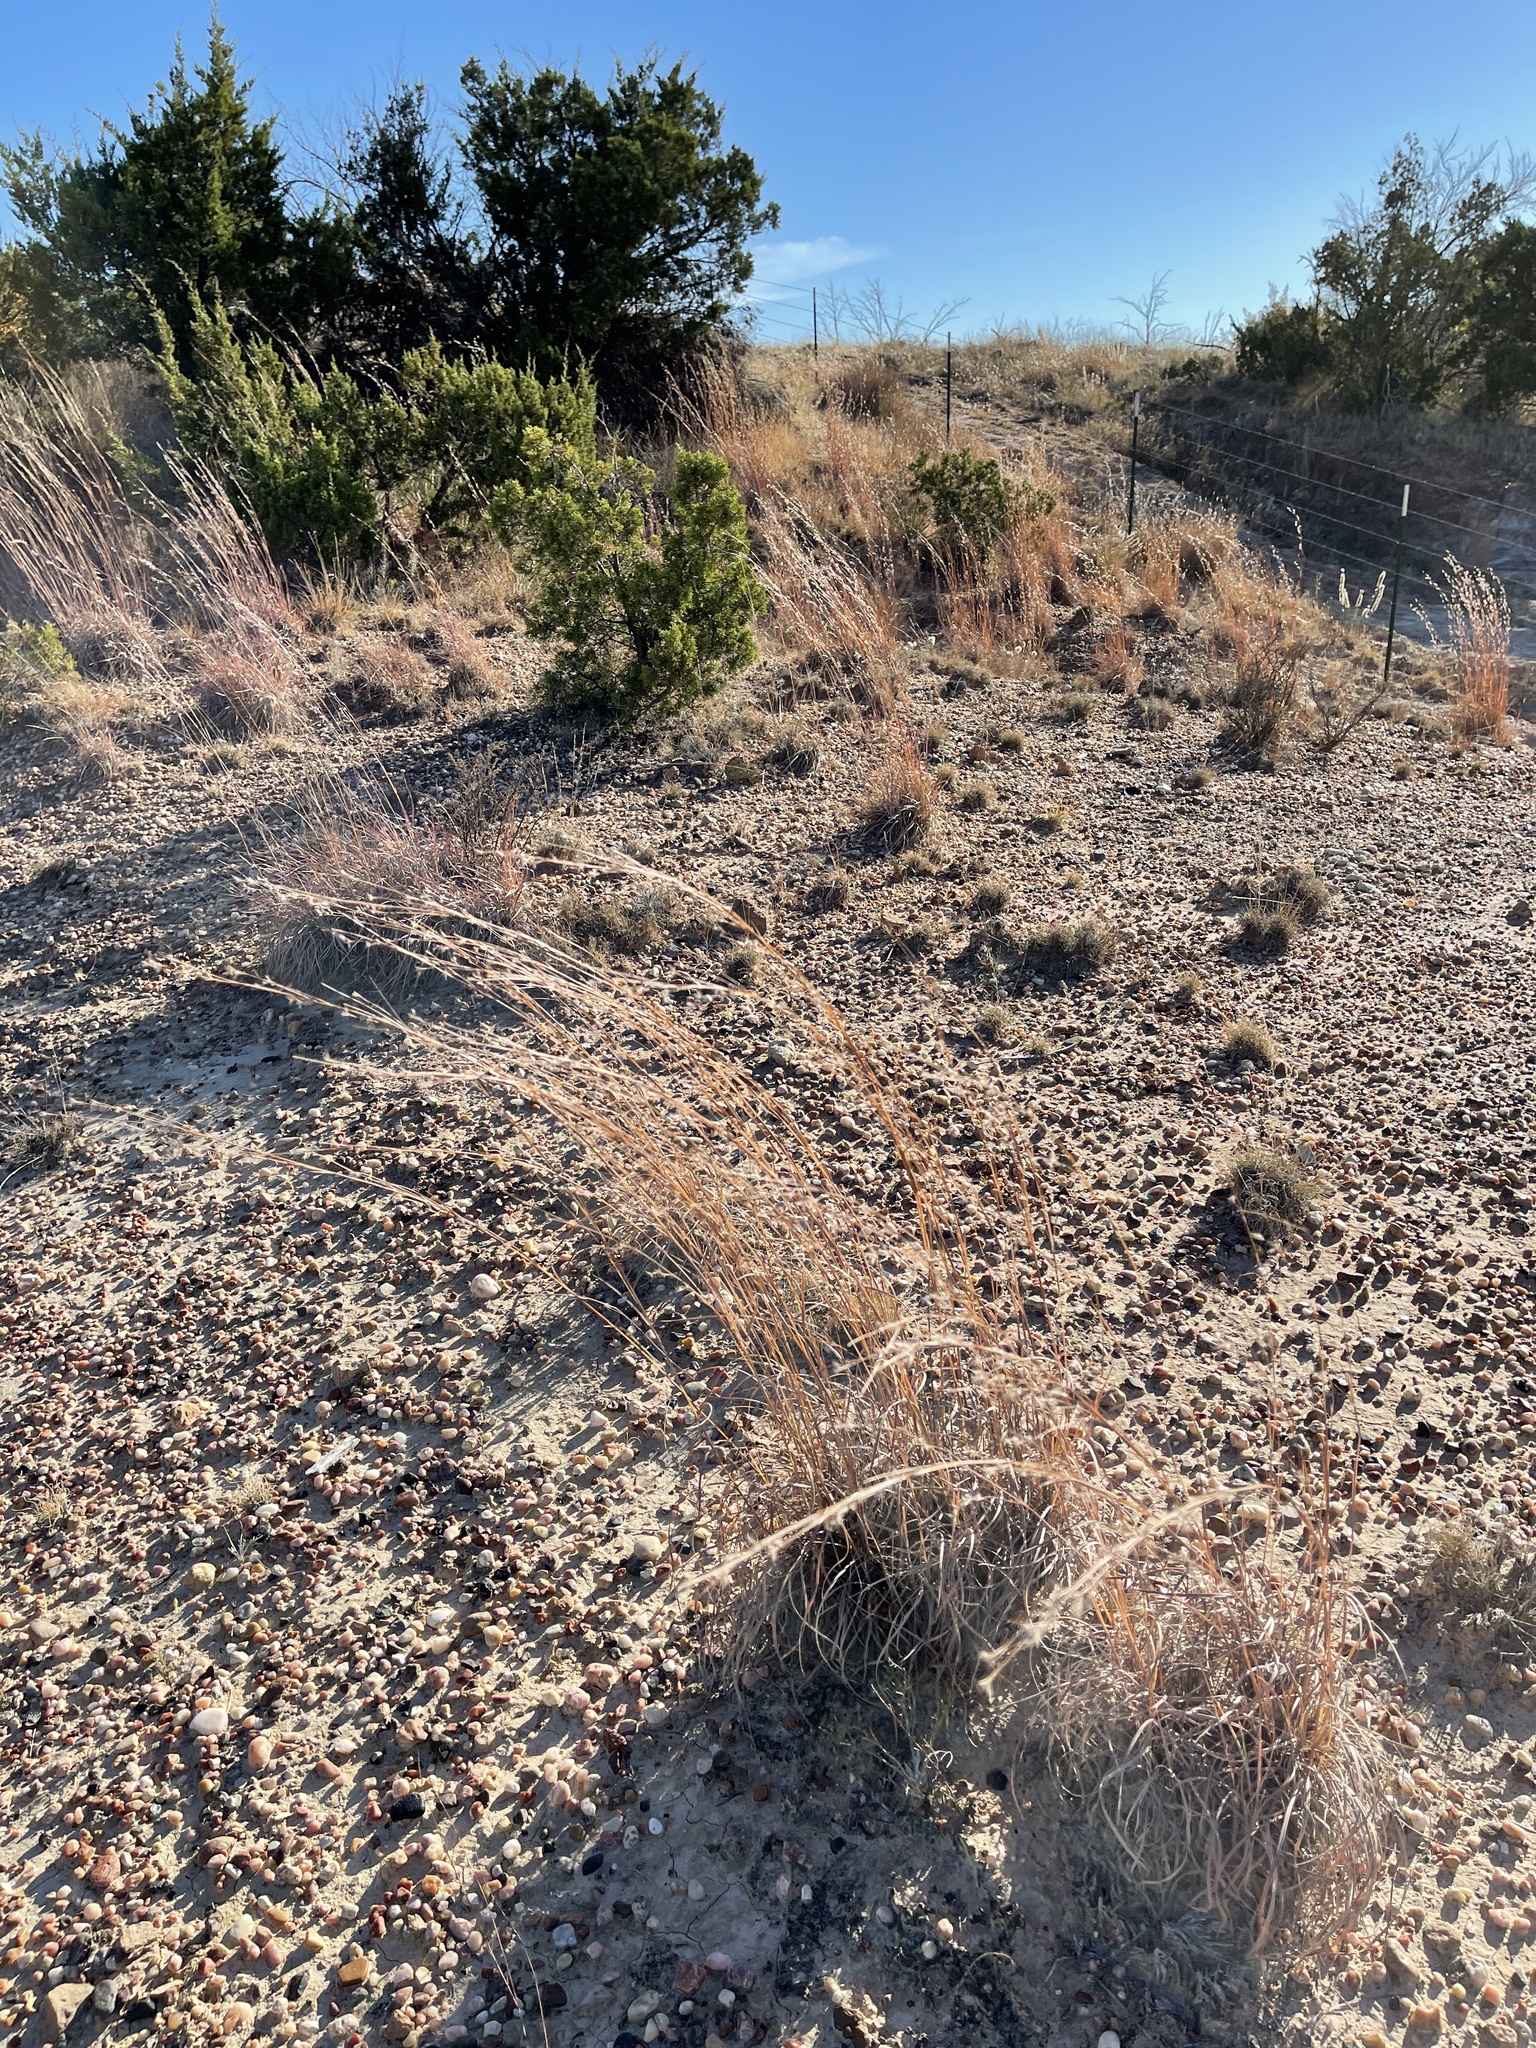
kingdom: Plantae
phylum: Tracheophyta
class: Liliopsida
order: Poales
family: Poaceae
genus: Schizachyrium
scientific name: Schizachyrium scoparium
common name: Little bluestem
